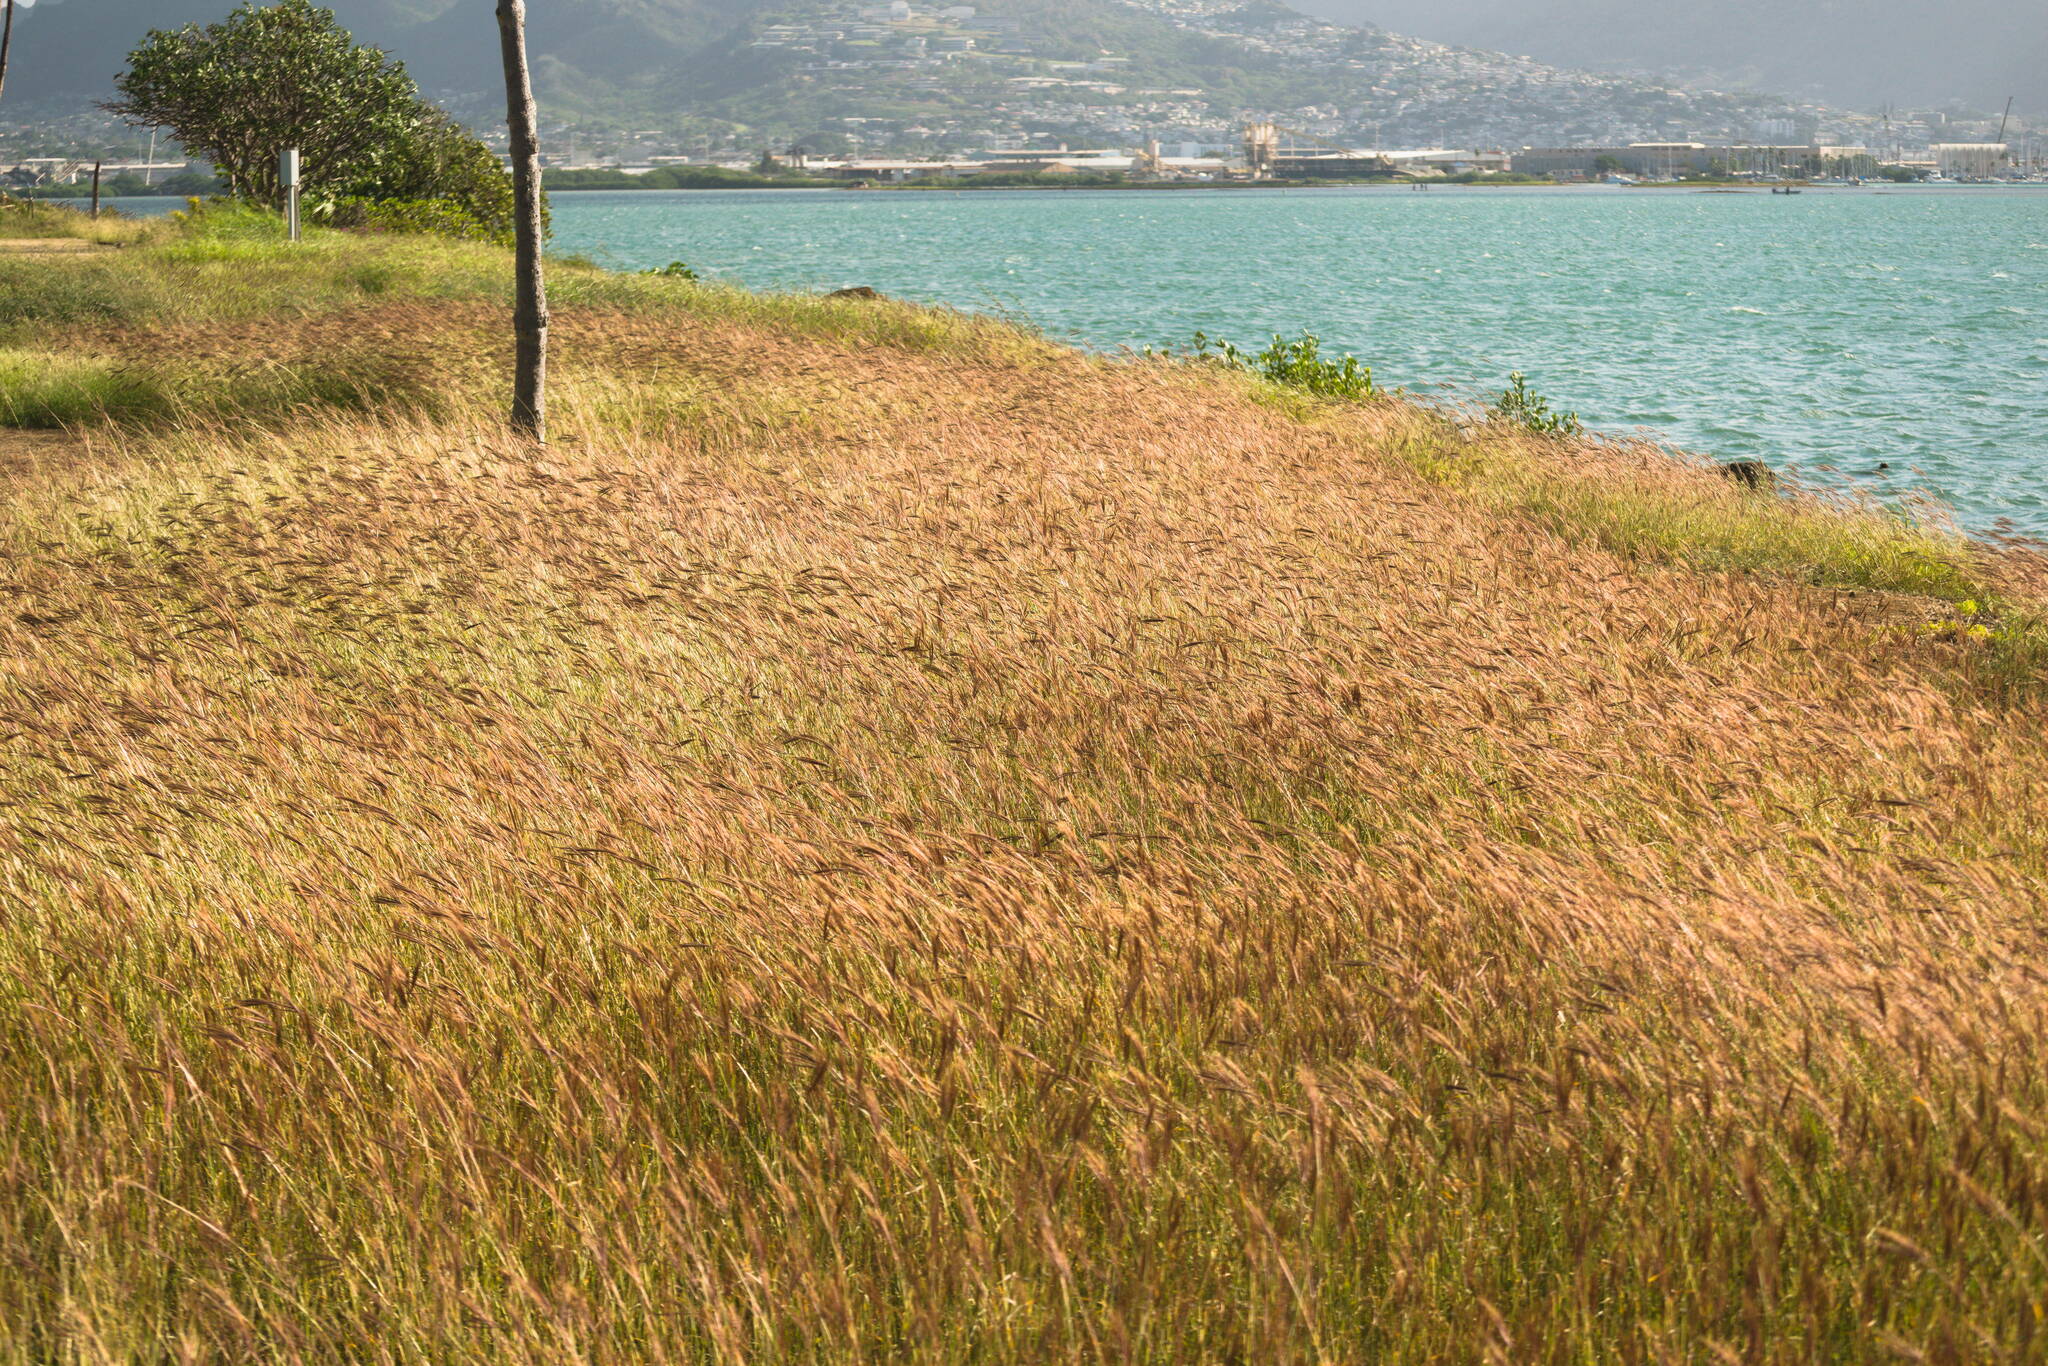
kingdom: Plantae
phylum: Tracheophyta
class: Liliopsida
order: Poales
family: Poaceae
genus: Dichanthium
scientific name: Dichanthium annulatum
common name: Kleberg's bluestem
